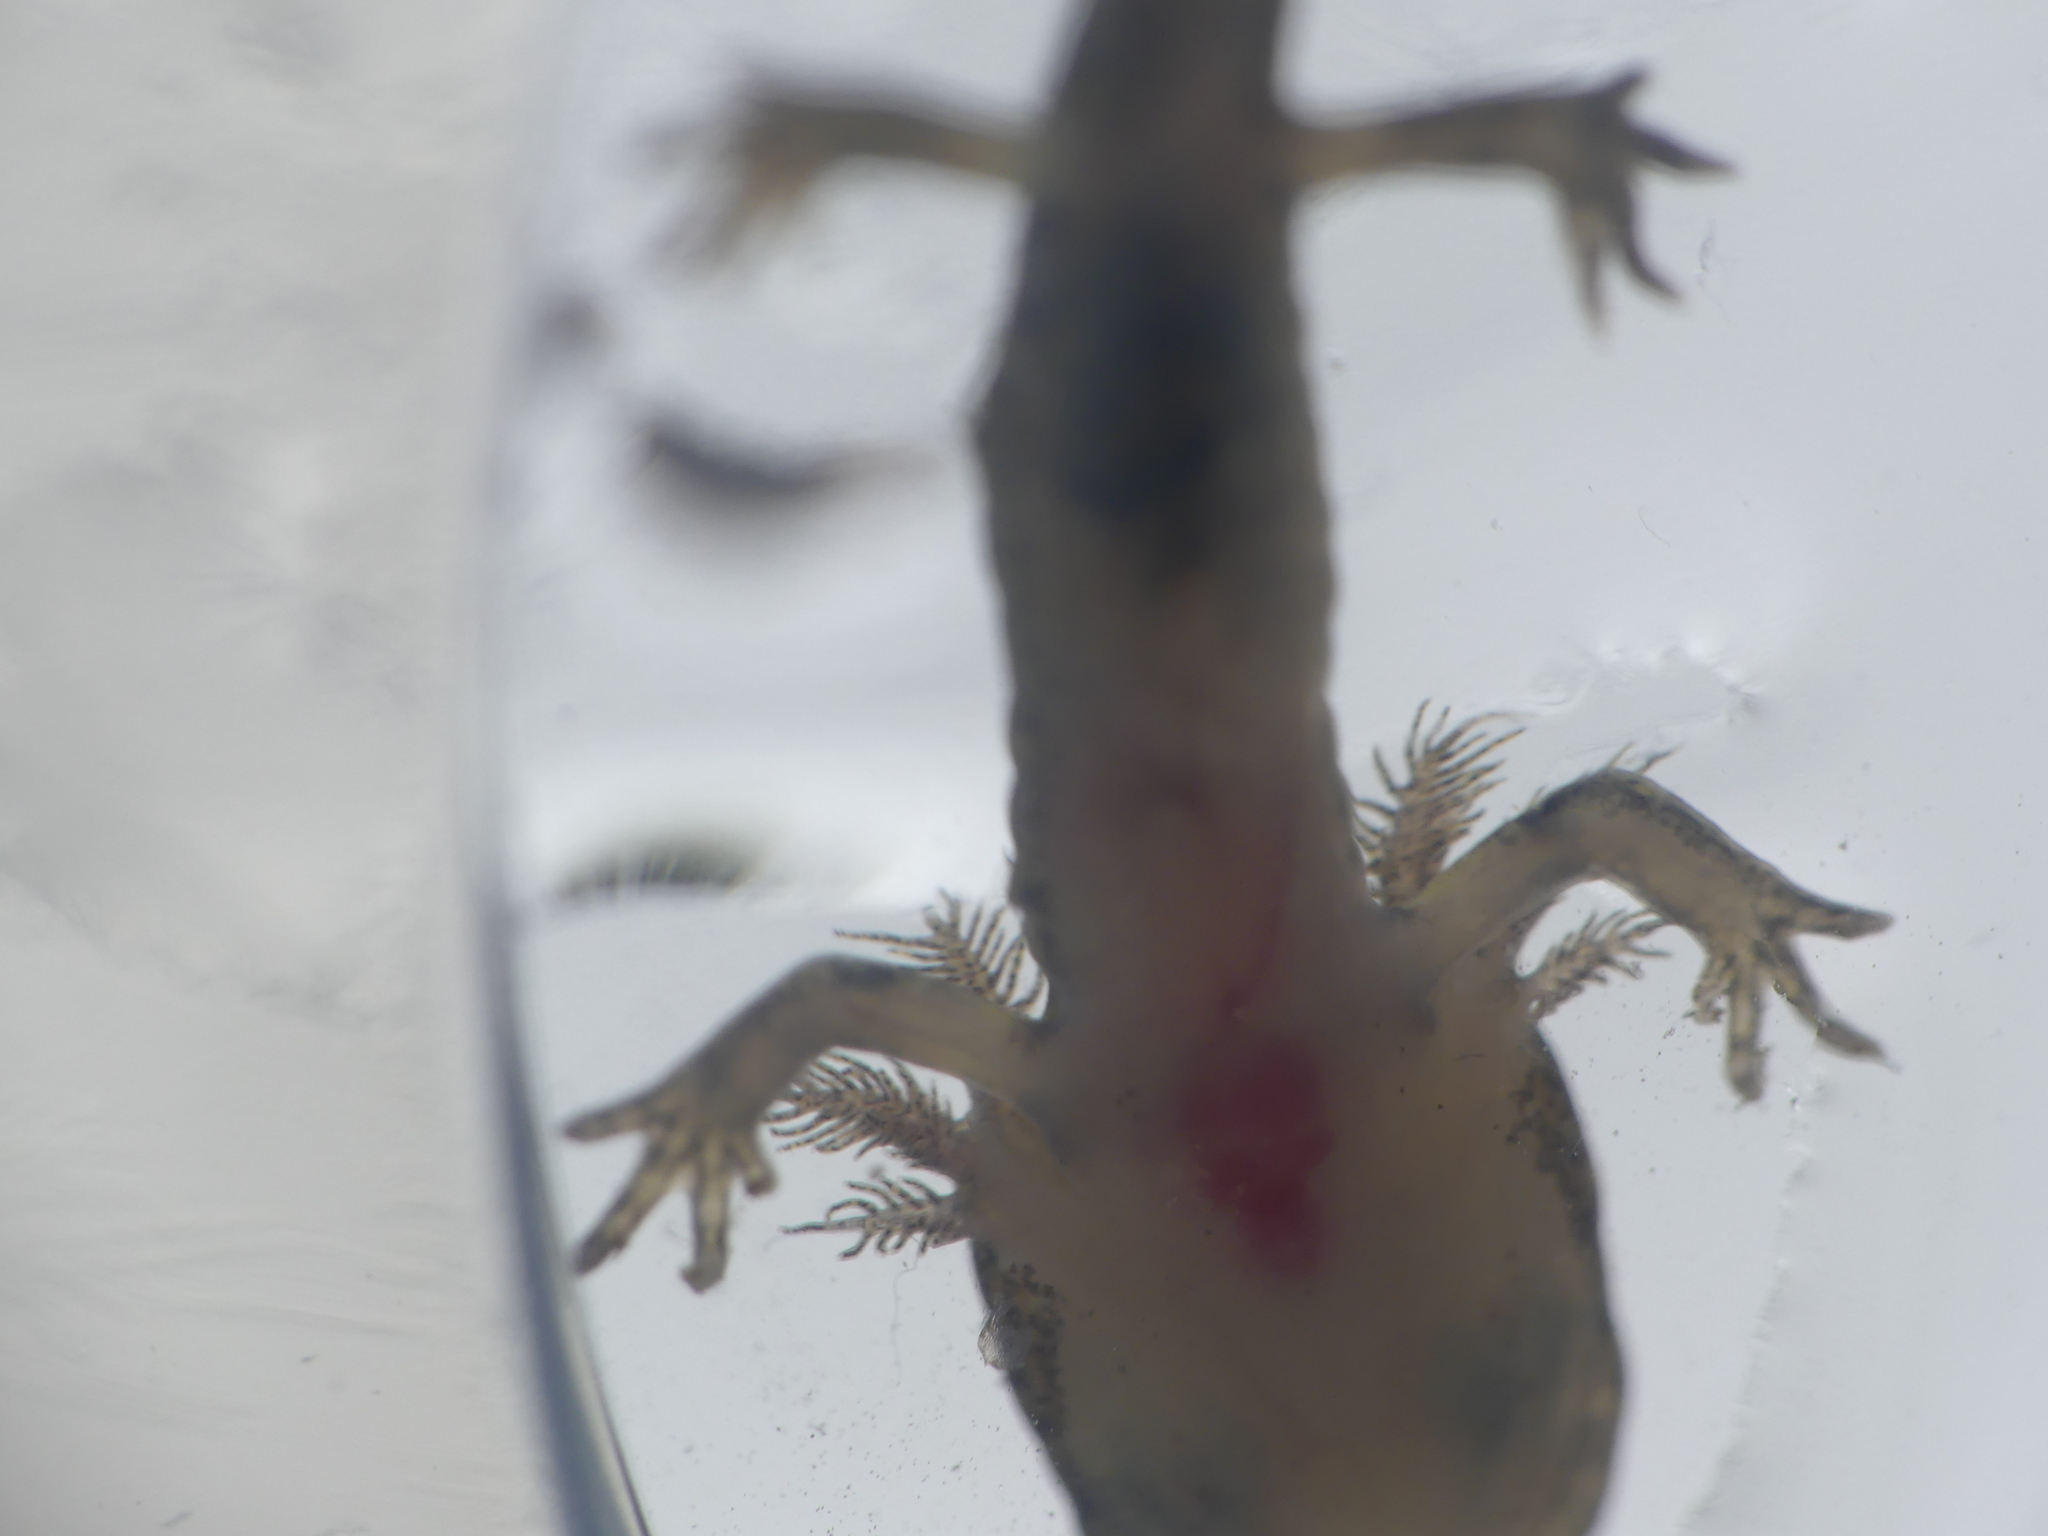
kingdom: Animalia
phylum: Chordata
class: Amphibia
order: Caudata
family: Salamandridae
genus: Salamandra
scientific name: Salamandra salamandra
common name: Fire salamander
